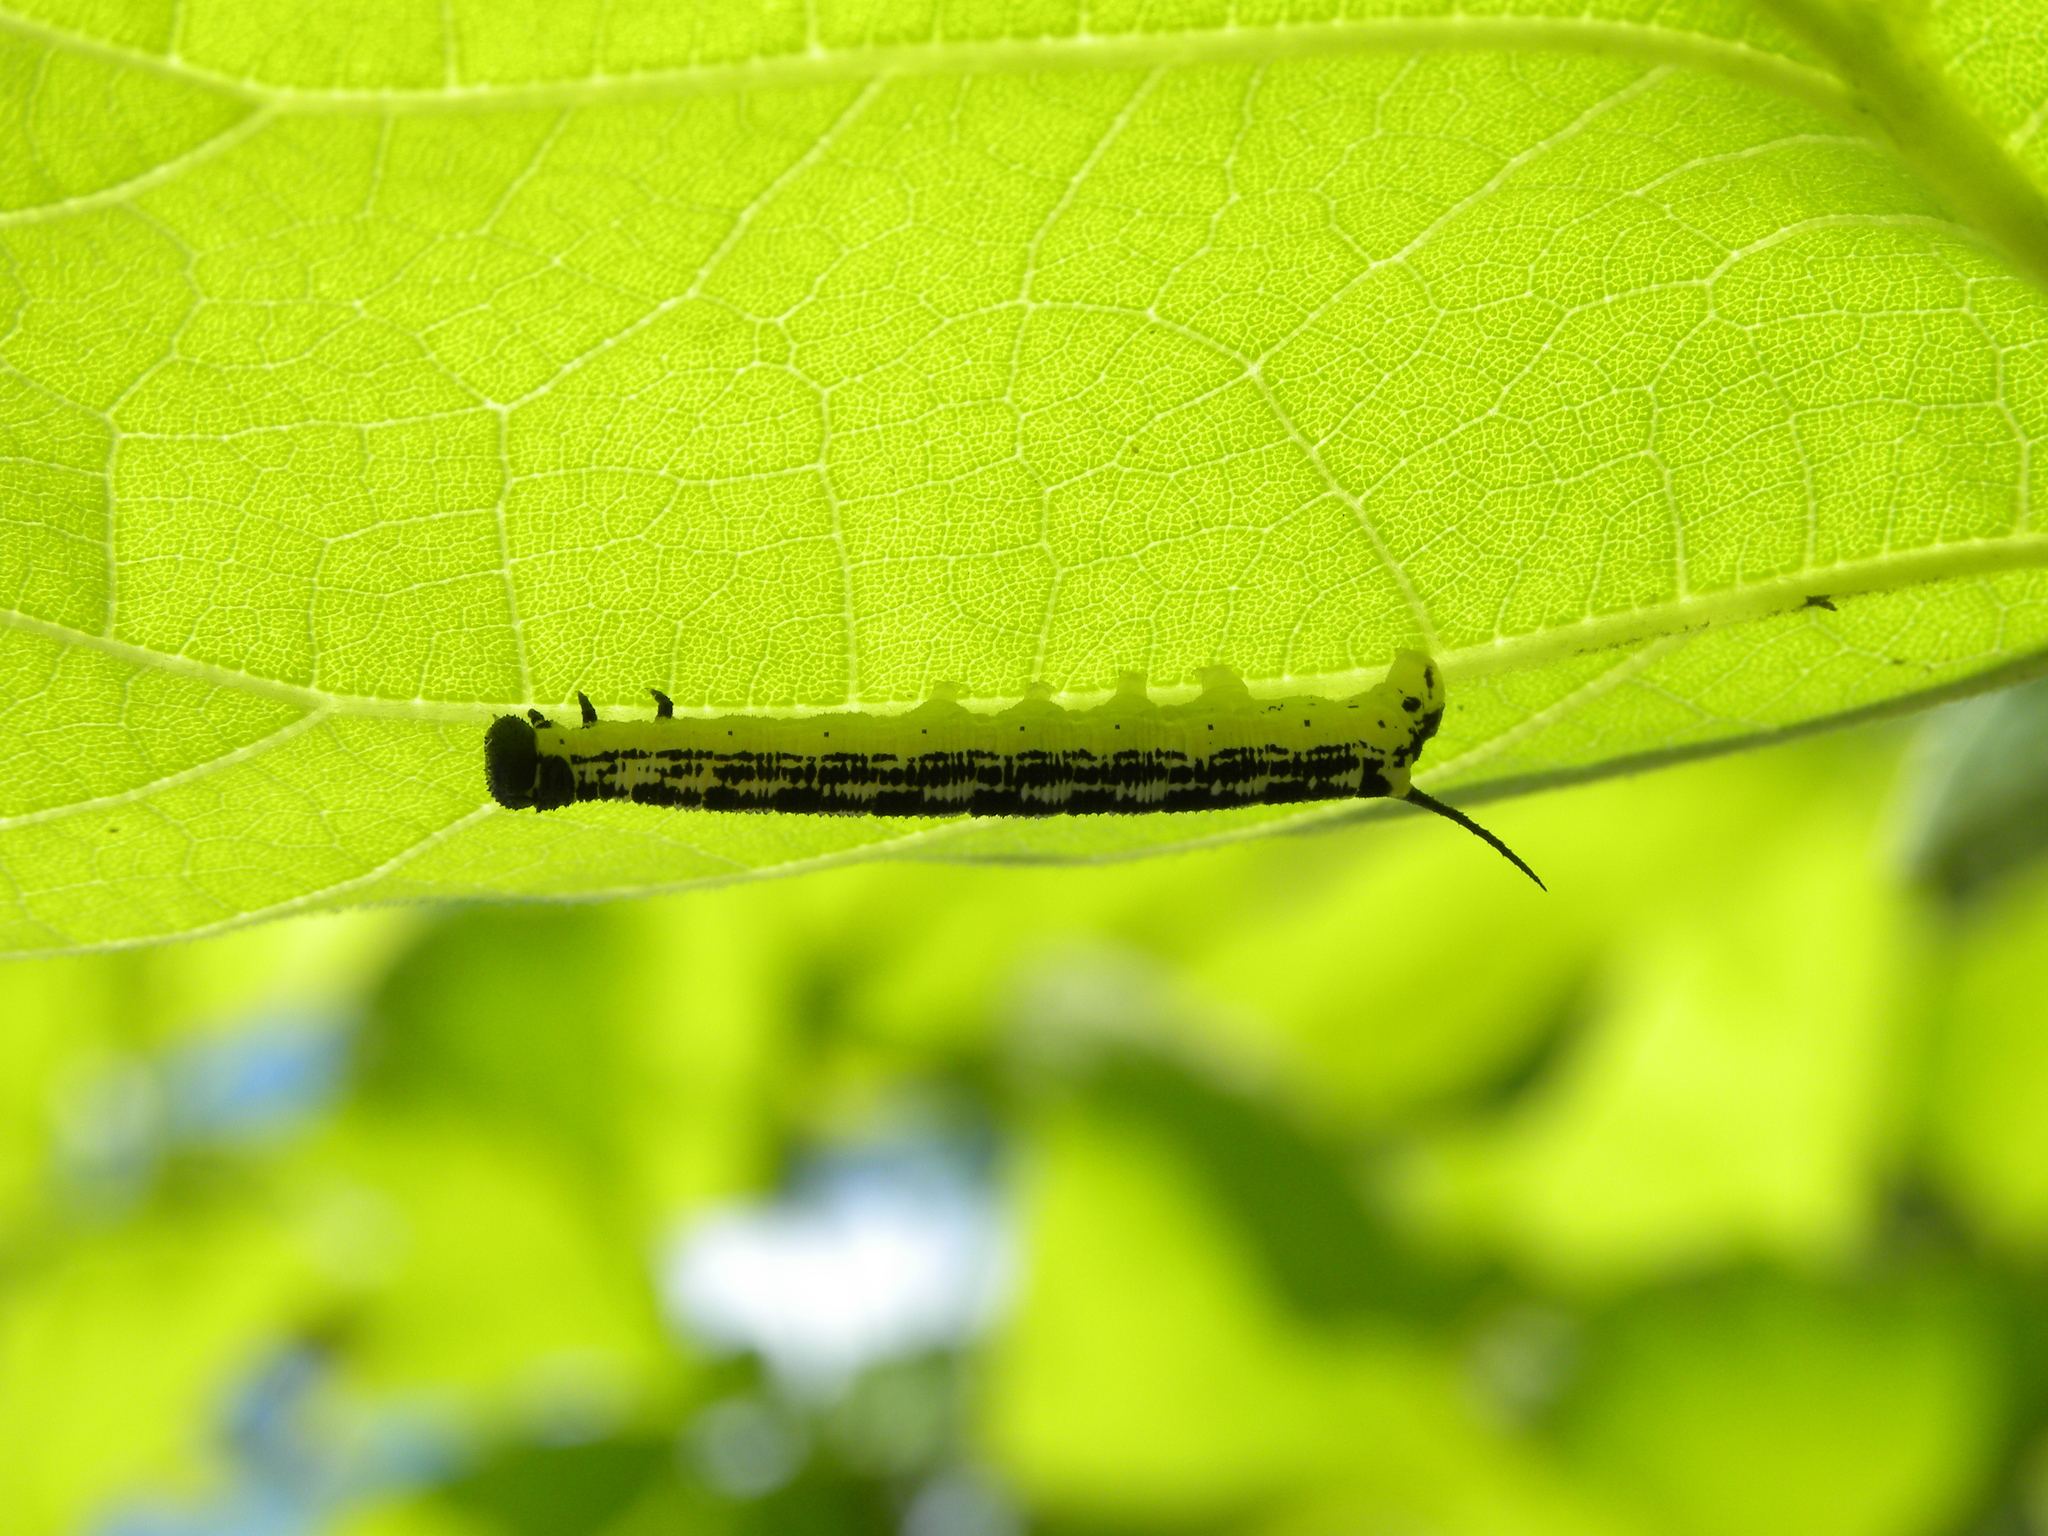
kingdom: Animalia
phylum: Arthropoda
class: Insecta
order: Lepidoptera
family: Sphingidae
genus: Ceratomia
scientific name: Ceratomia catalpae
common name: Catalpa hornworm
